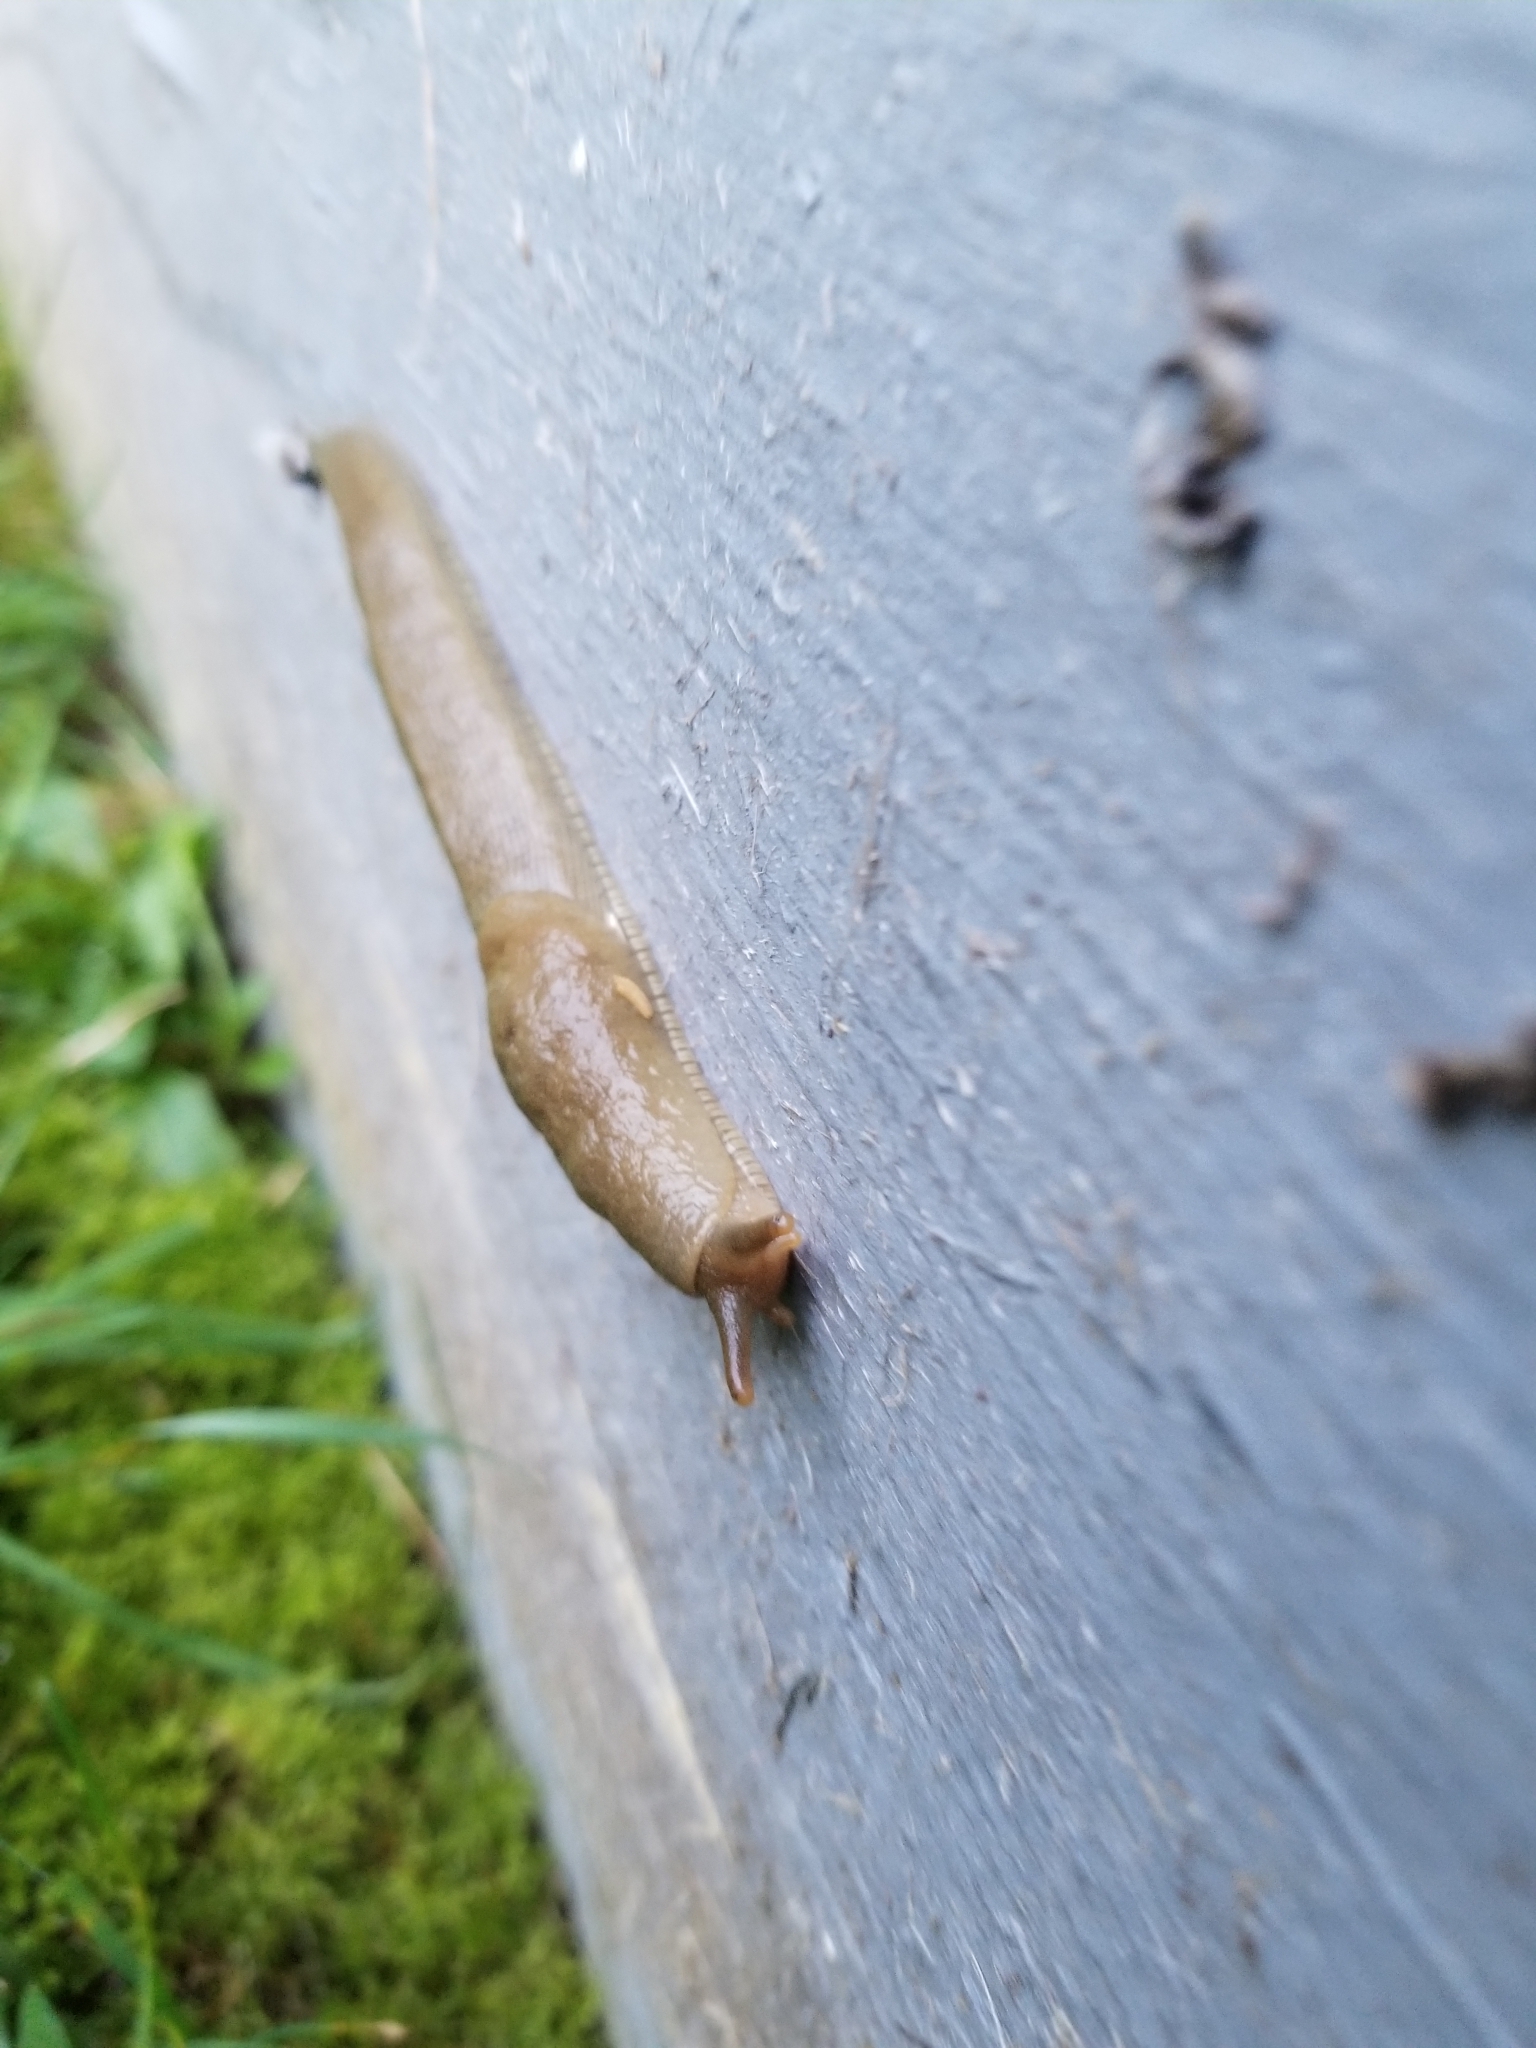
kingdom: Animalia
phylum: Mollusca
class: Gastropoda
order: Stylommatophora
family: Ariolimacidae
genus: Ariolimax
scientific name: Ariolimax columbianus
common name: Pacific banana slug
